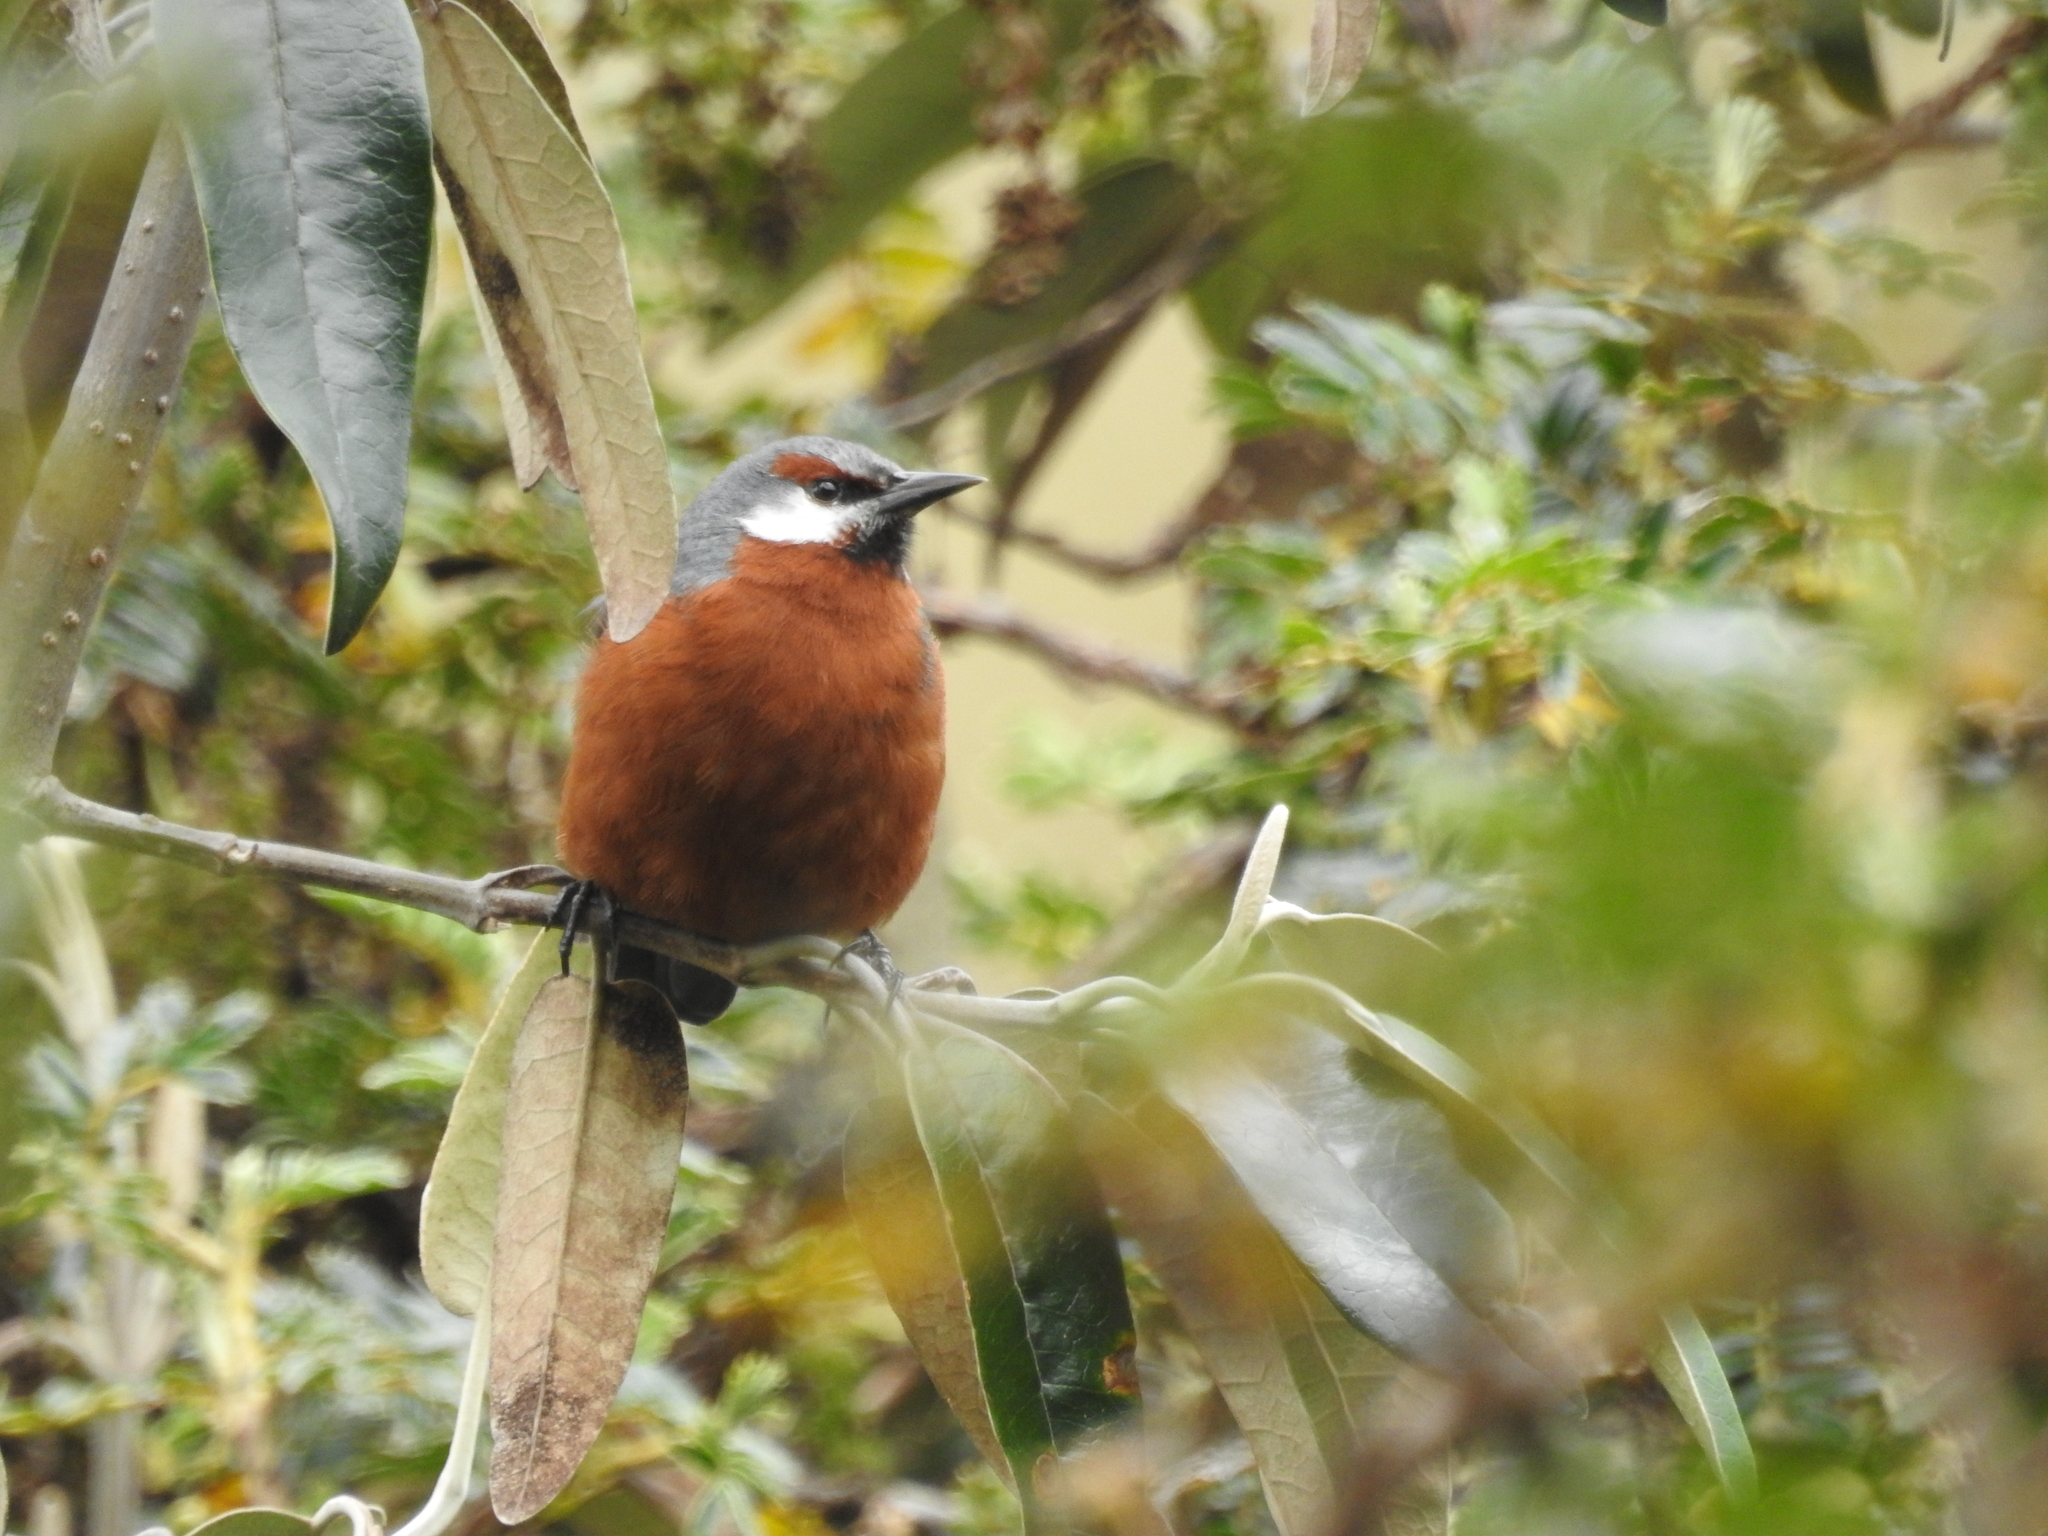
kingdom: Animalia
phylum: Chordata
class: Aves
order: Passeriformes
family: Thraupidae
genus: Conirostrum
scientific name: Conirostrum binghami
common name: Giant conebill
